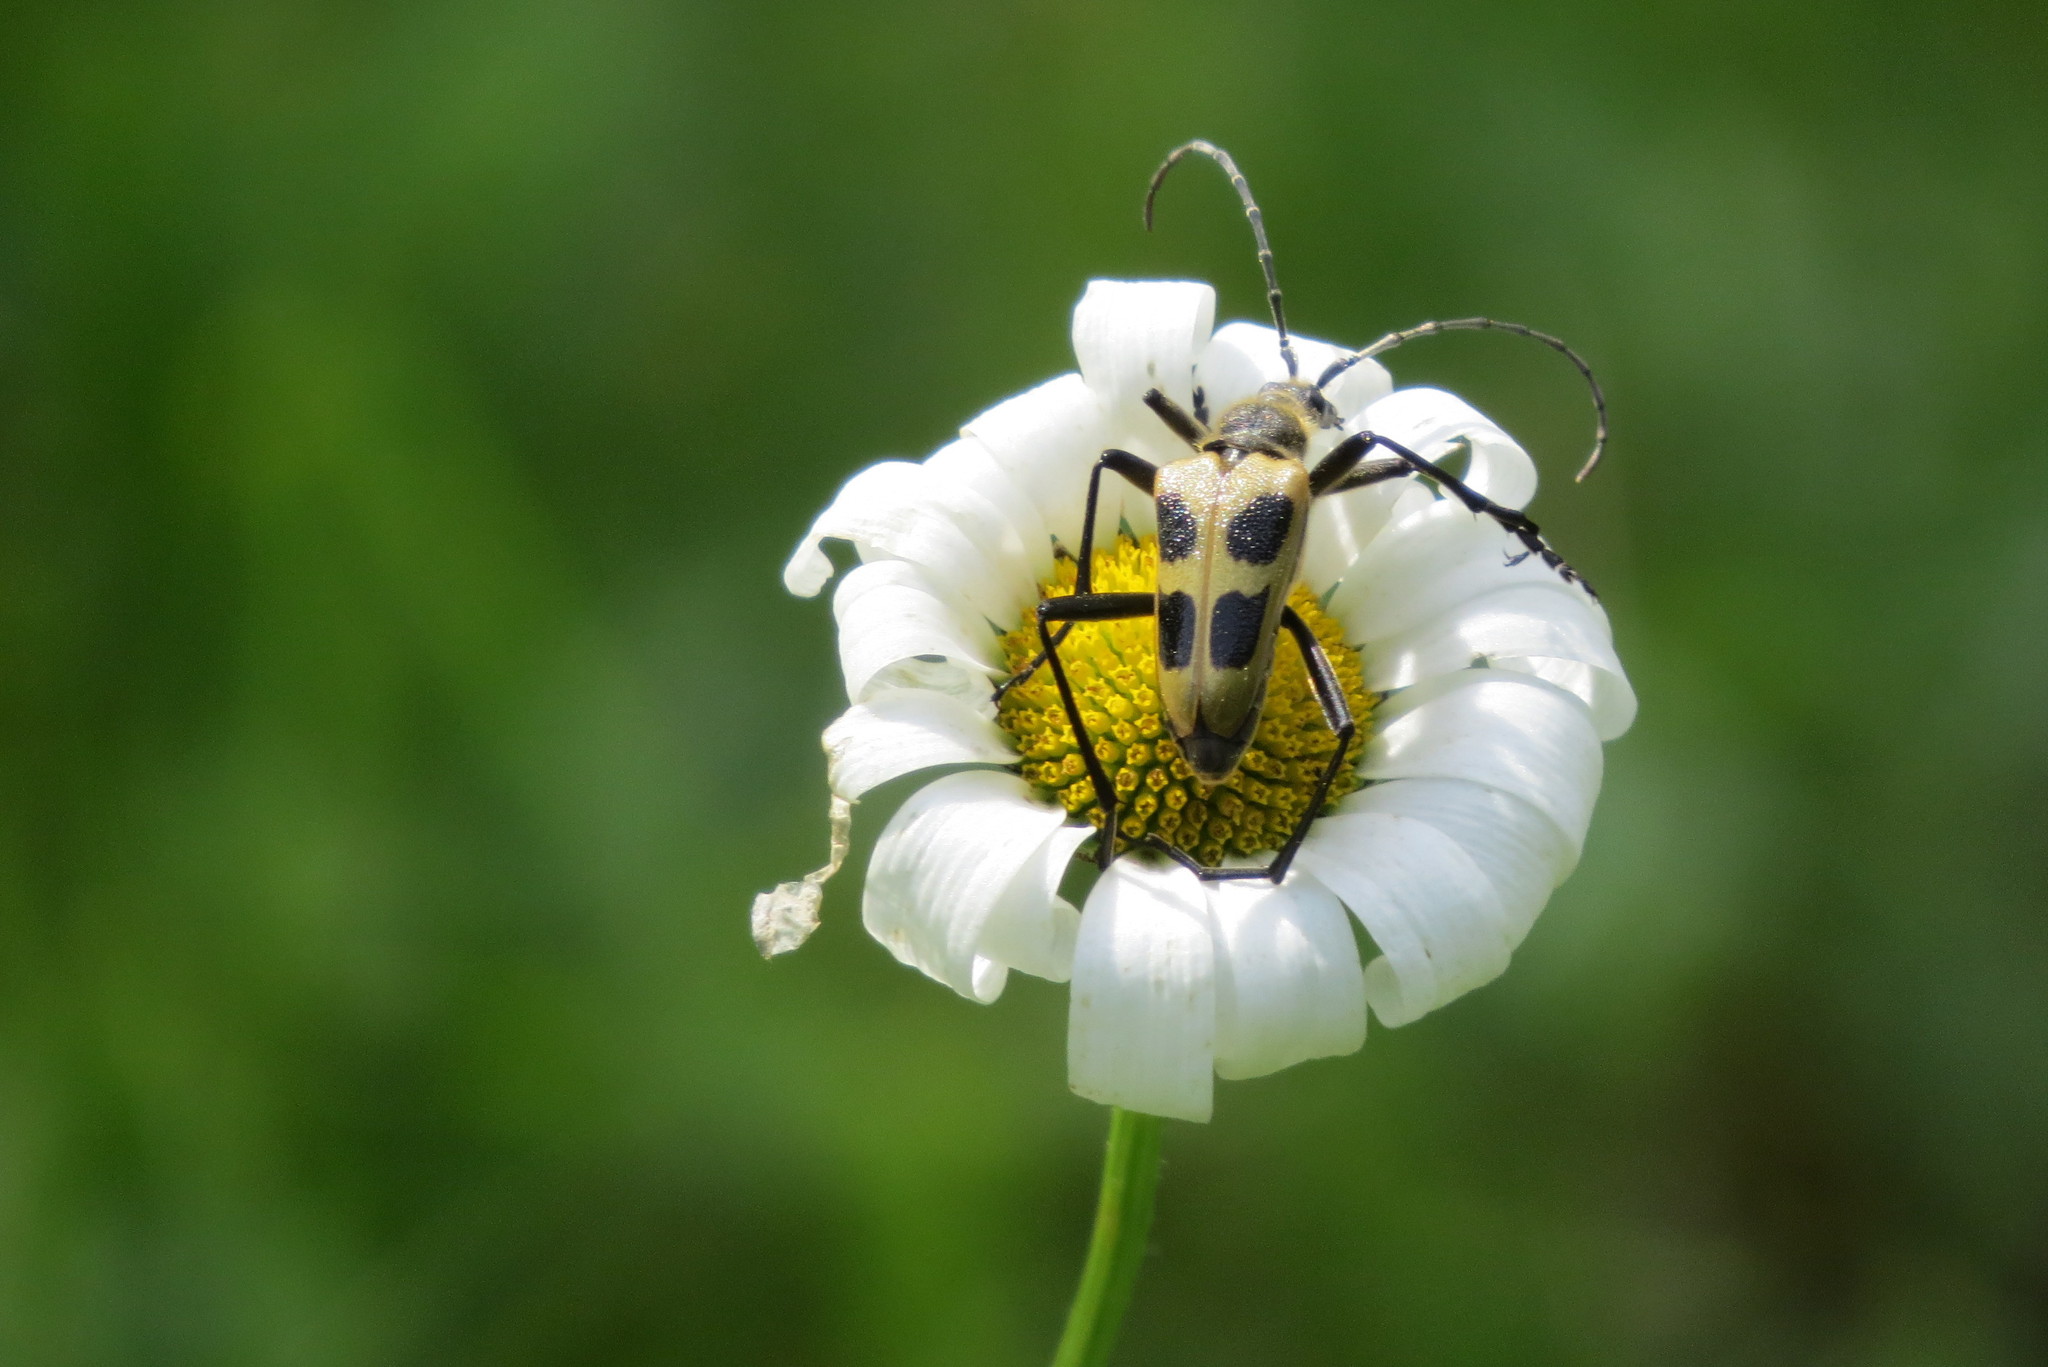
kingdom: Animalia
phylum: Arthropoda
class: Insecta
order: Coleoptera
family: Cerambycidae
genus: Pachyta
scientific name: Pachyta quadrimaculata
